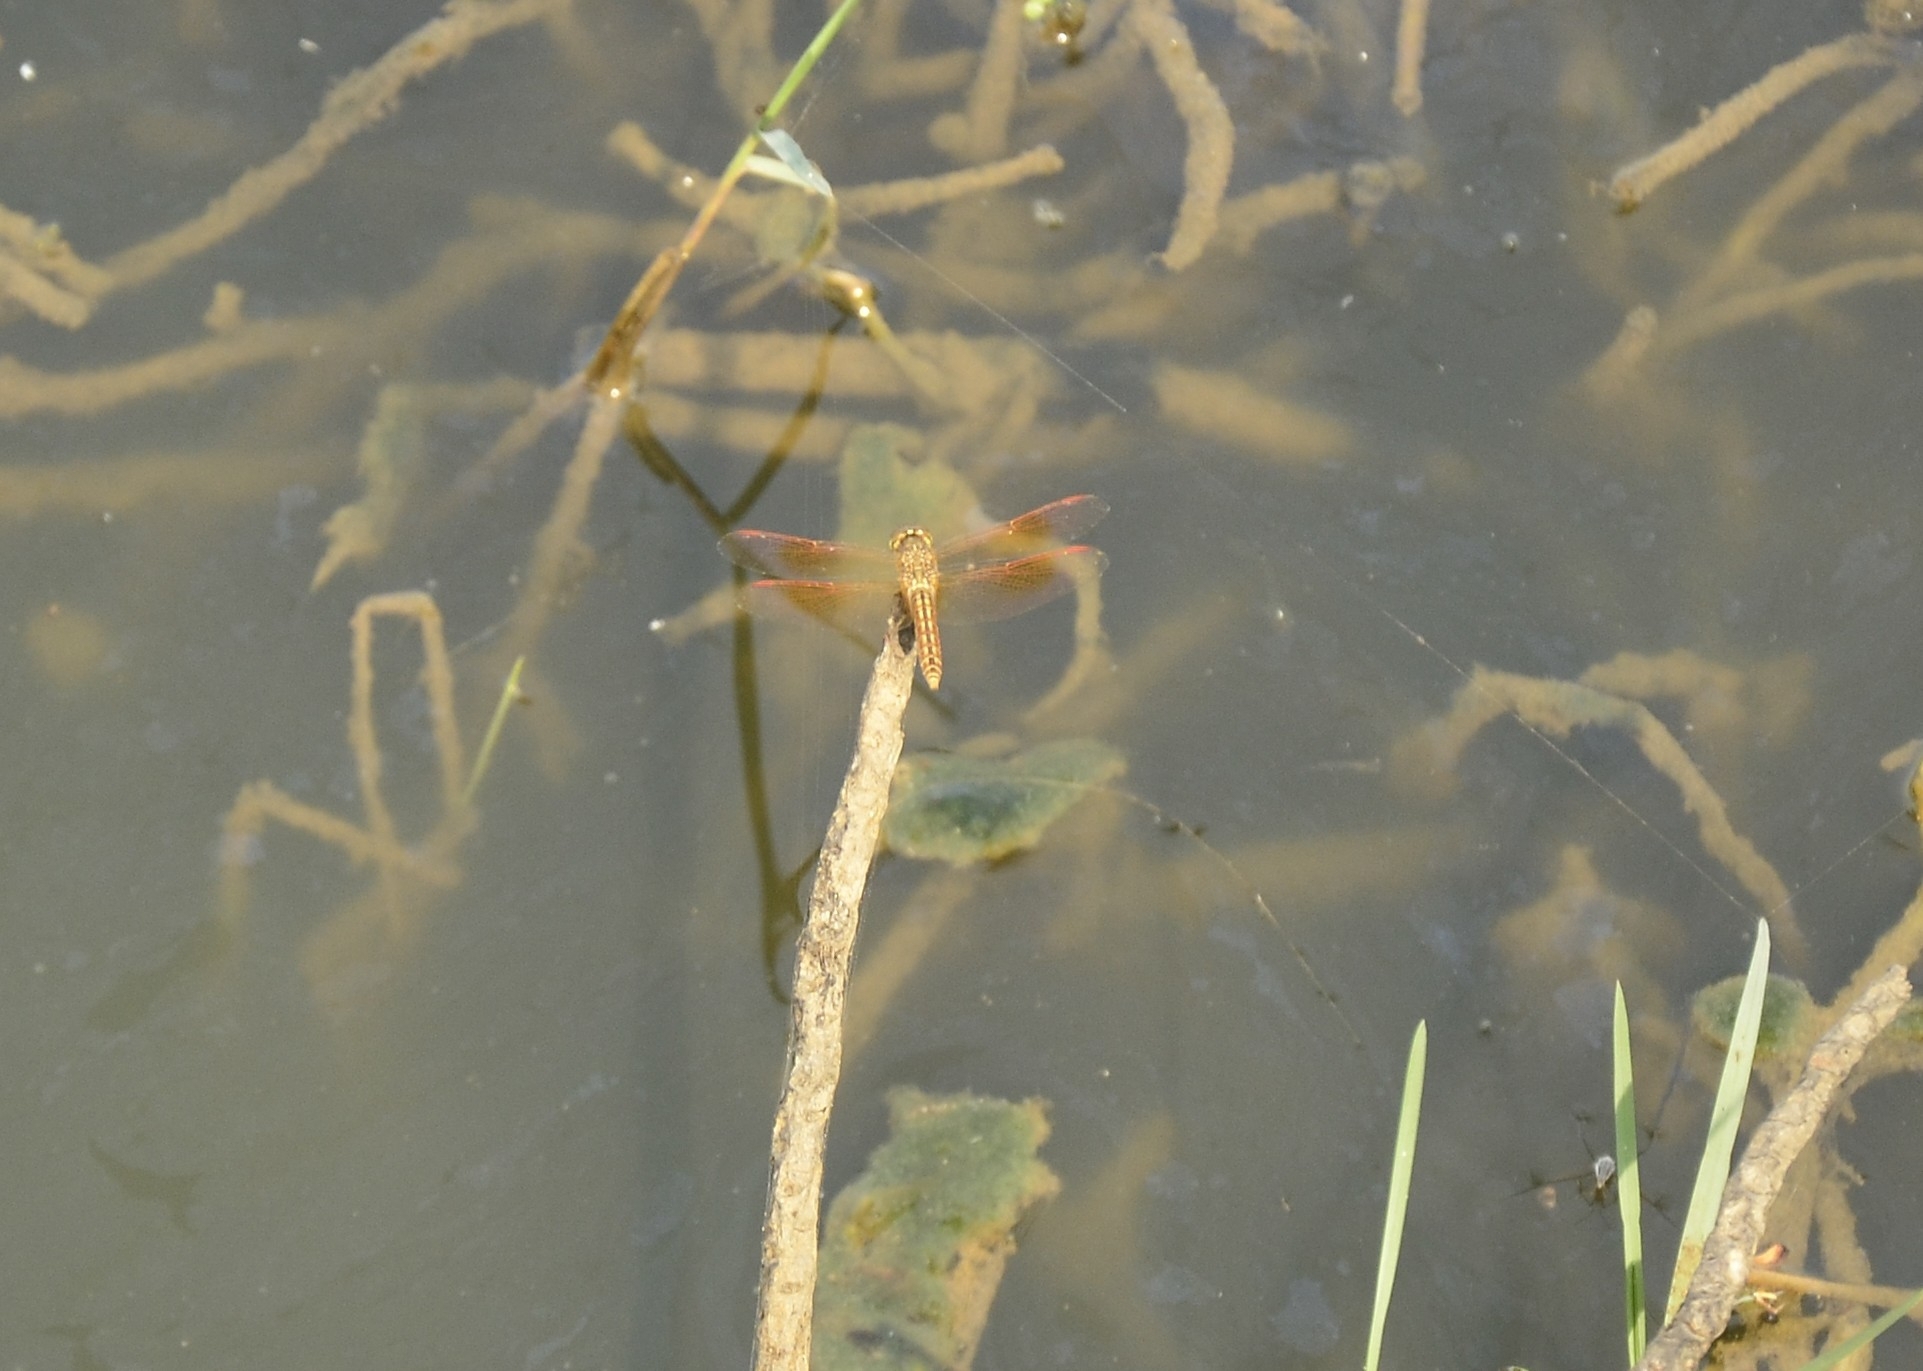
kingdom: Animalia
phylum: Arthropoda
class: Insecta
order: Odonata
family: Libellulidae
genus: Brachythemis
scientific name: Brachythemis contaminata
